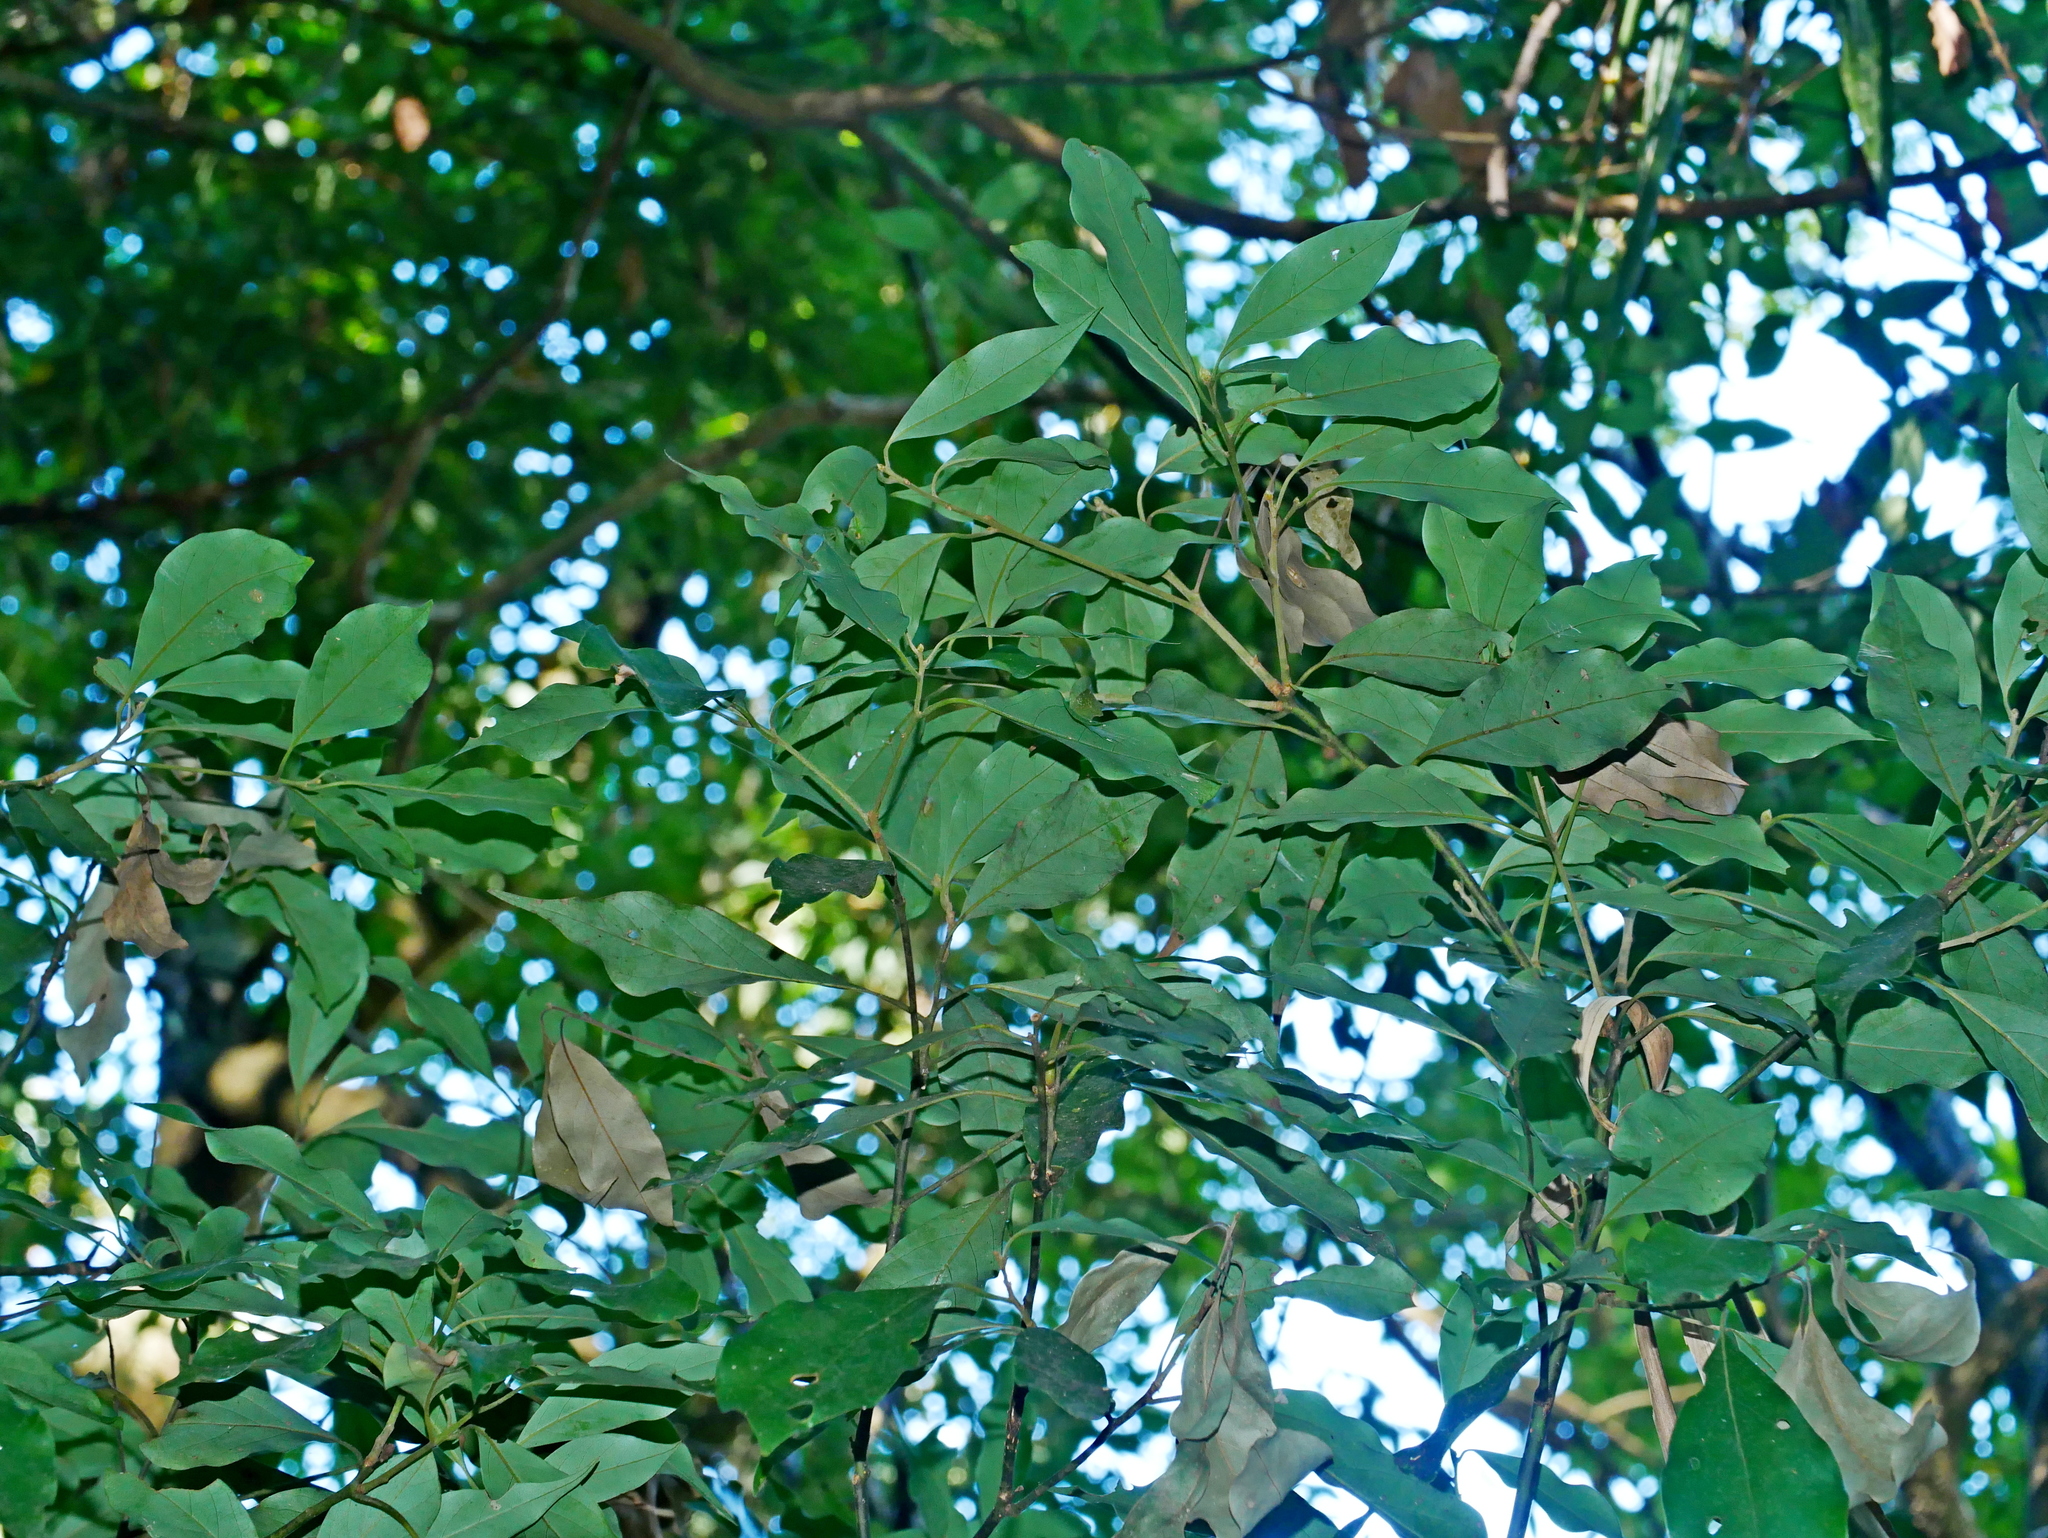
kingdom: Plantae
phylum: Tracheophyta
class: Magnoliopsida
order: Laurales
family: Lauraceae
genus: Cinnamomum
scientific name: Cinnamomum philippinense
